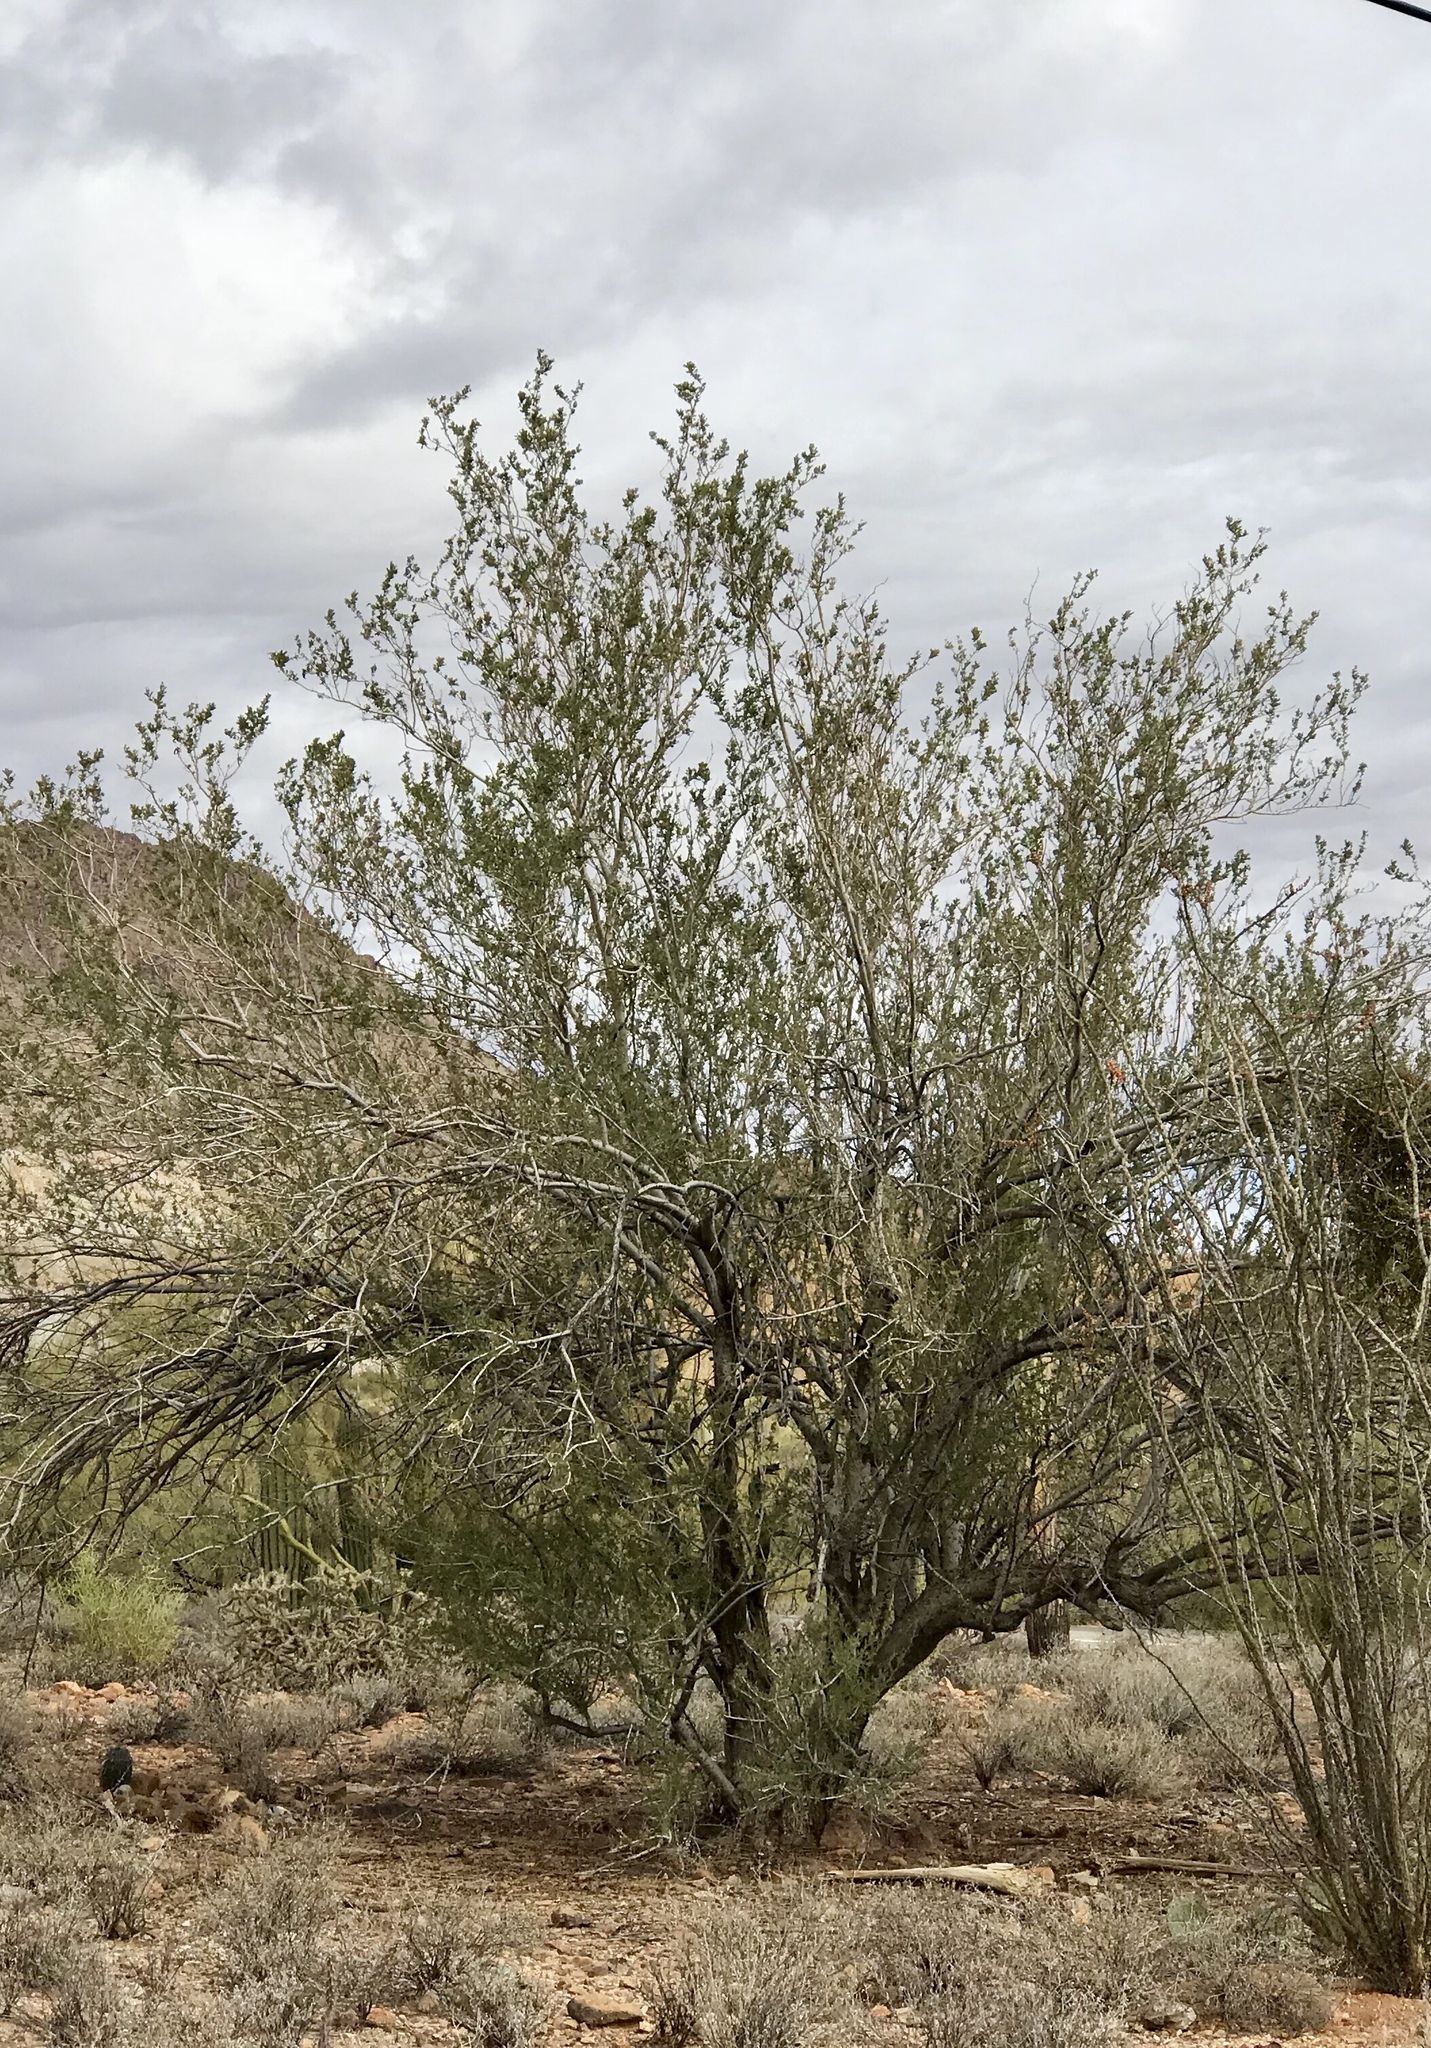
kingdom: Plantae
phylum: Tracheophyta
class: Magnoliopsida
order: Fabales
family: Fabaceae
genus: Olneya
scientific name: Olneya tesota
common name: Desert ironwood
